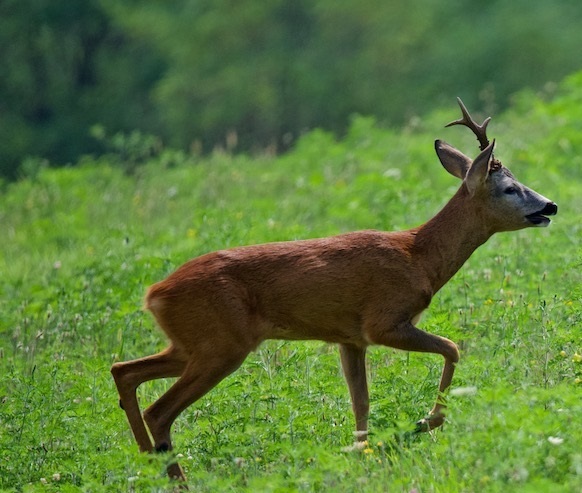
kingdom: Animalia
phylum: Chordata
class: Mammalia
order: Artiodactyla
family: Cervidae
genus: Capreolus
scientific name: Capreolus capreolus
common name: Western roe deer
